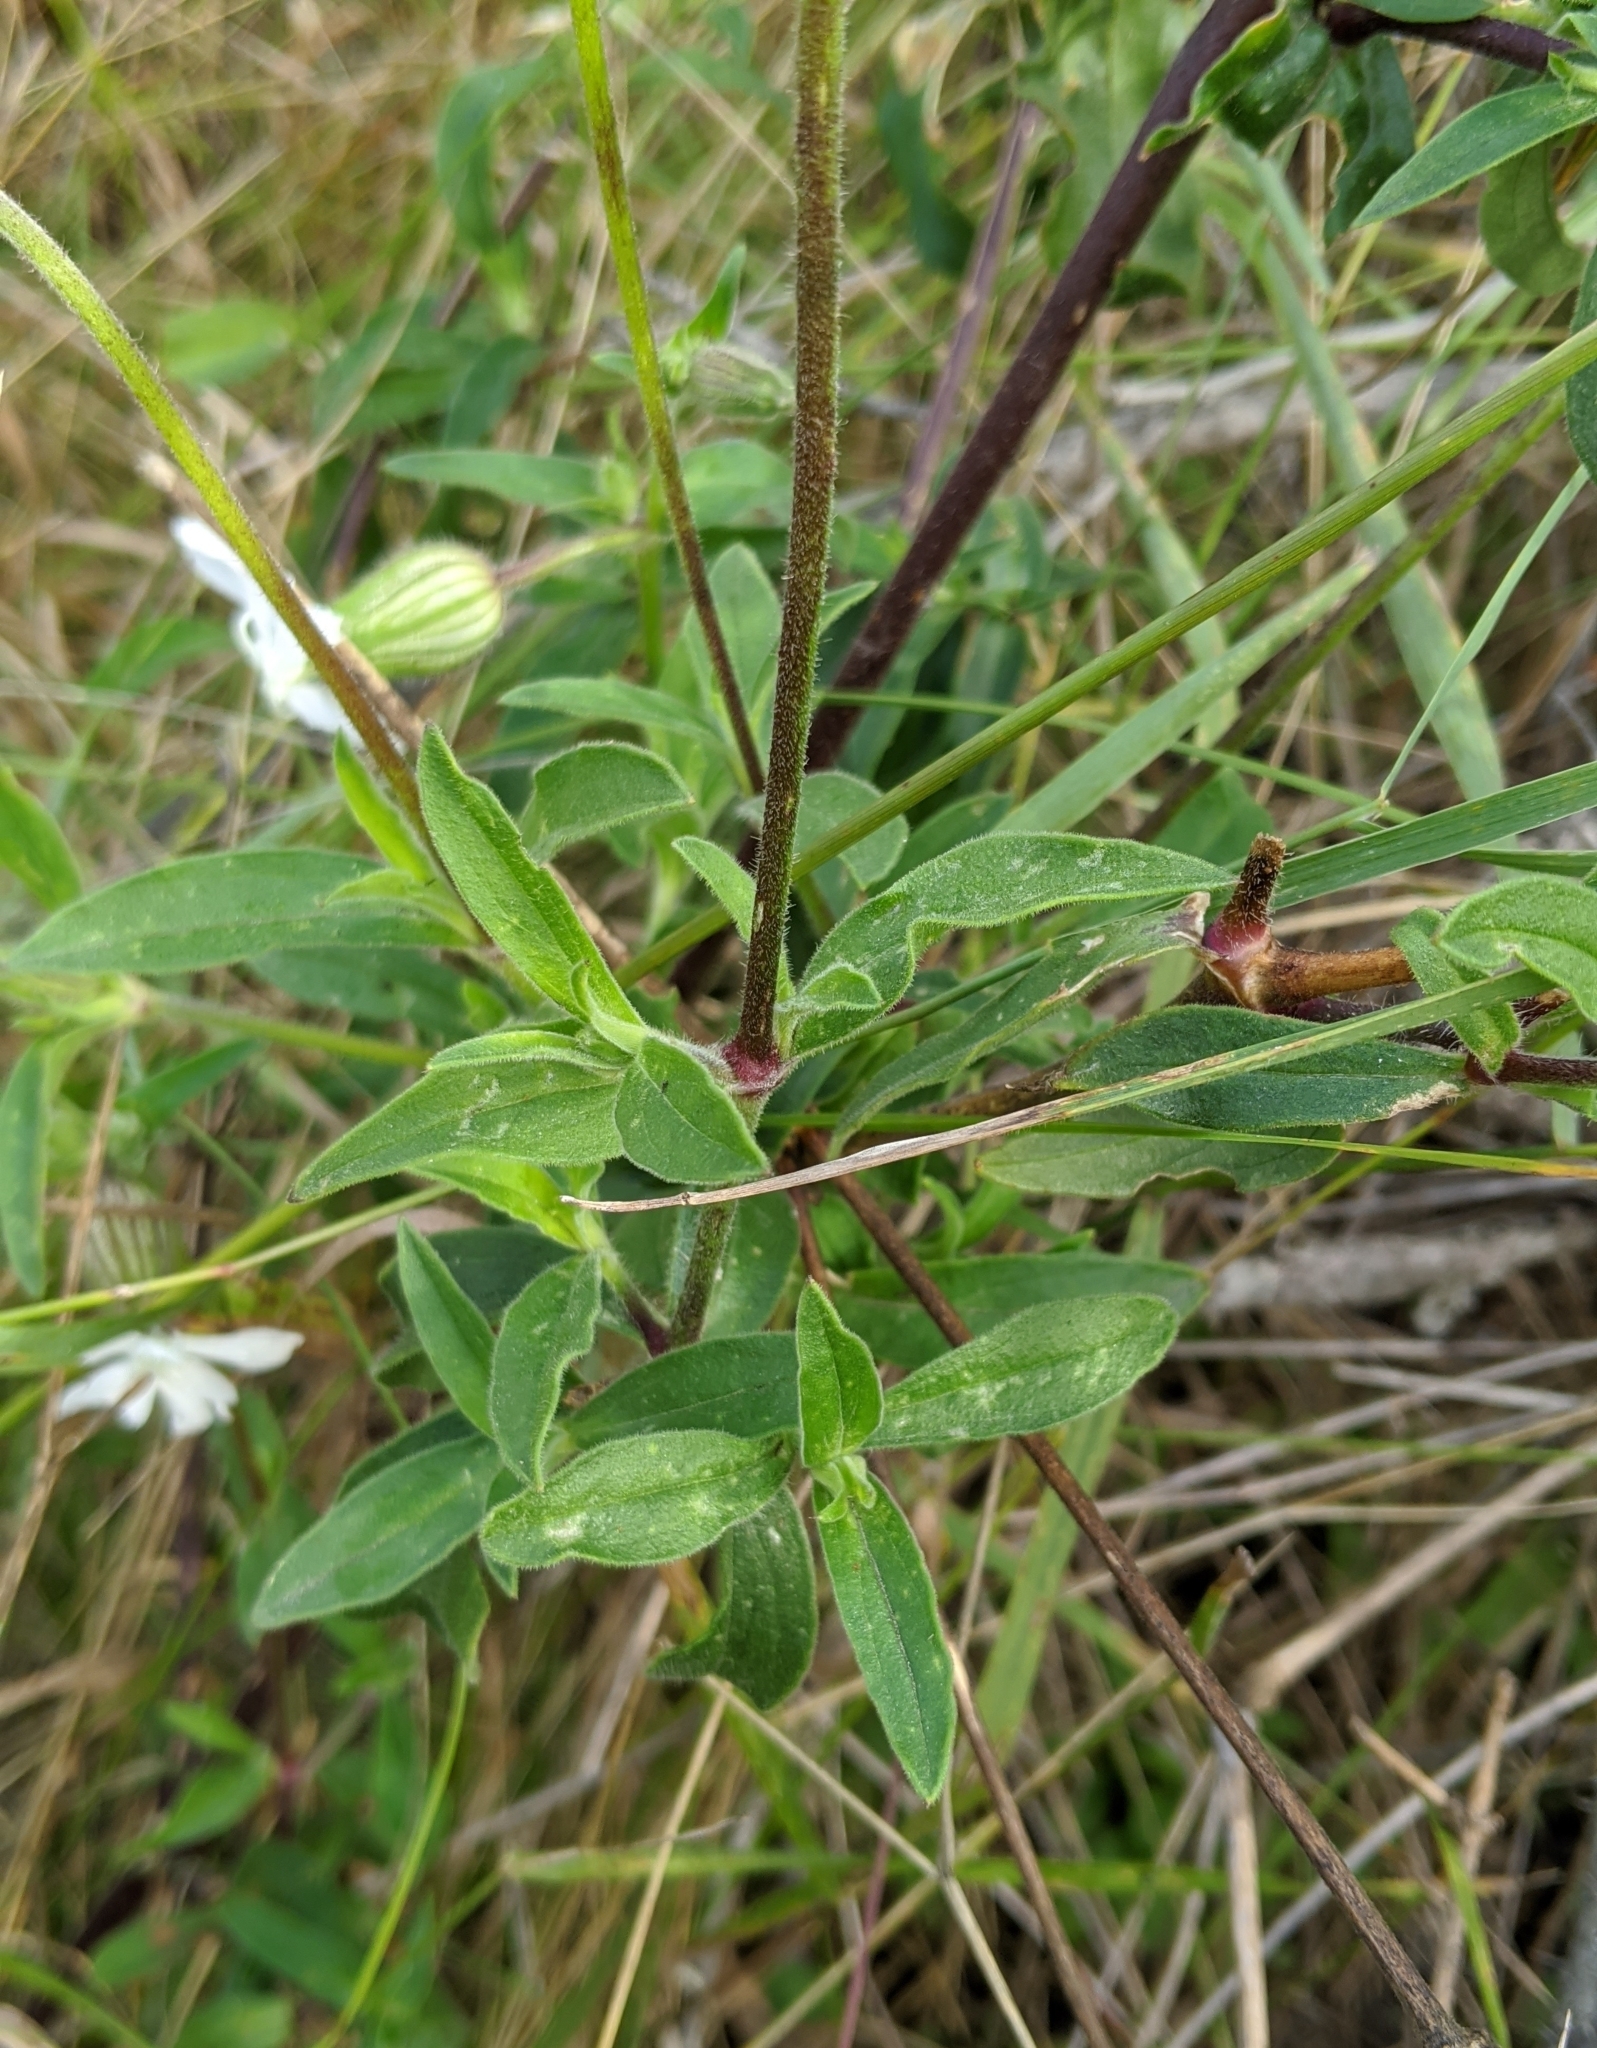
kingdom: Plantae
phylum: Tracheophyta
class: Magnoliopsida
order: Caryophyllales
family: Caryophyllaceae
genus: Silene
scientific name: Silene latifolia
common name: White campion
